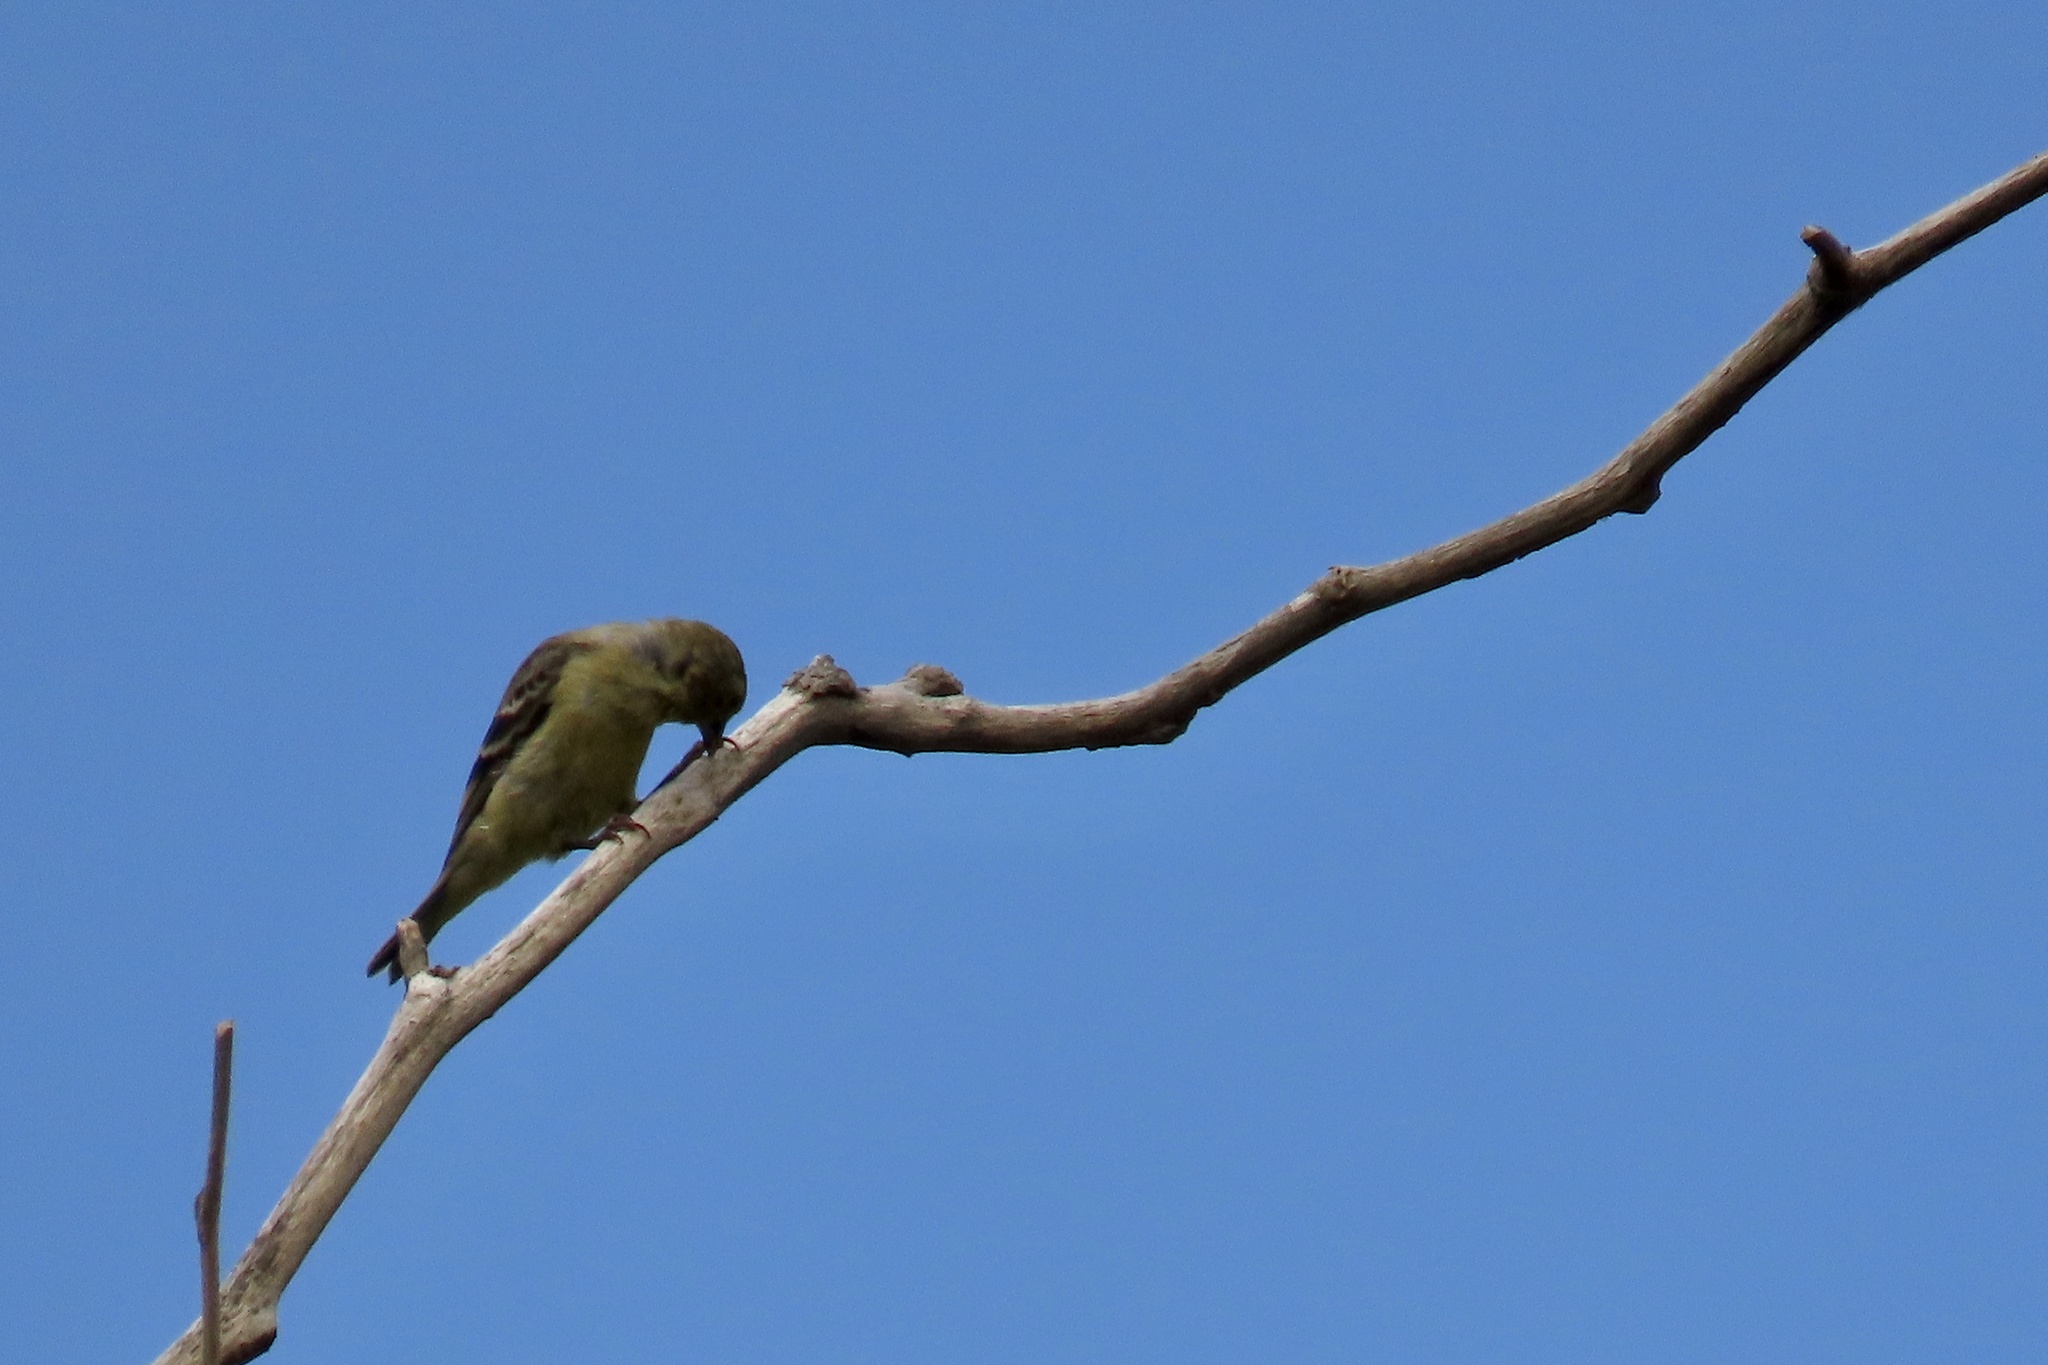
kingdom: Animalia
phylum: Chordata
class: Aves
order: Passeriformes
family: Fringillidae
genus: Spinus
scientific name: Spinus psaltria
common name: Lesser goldfinch
